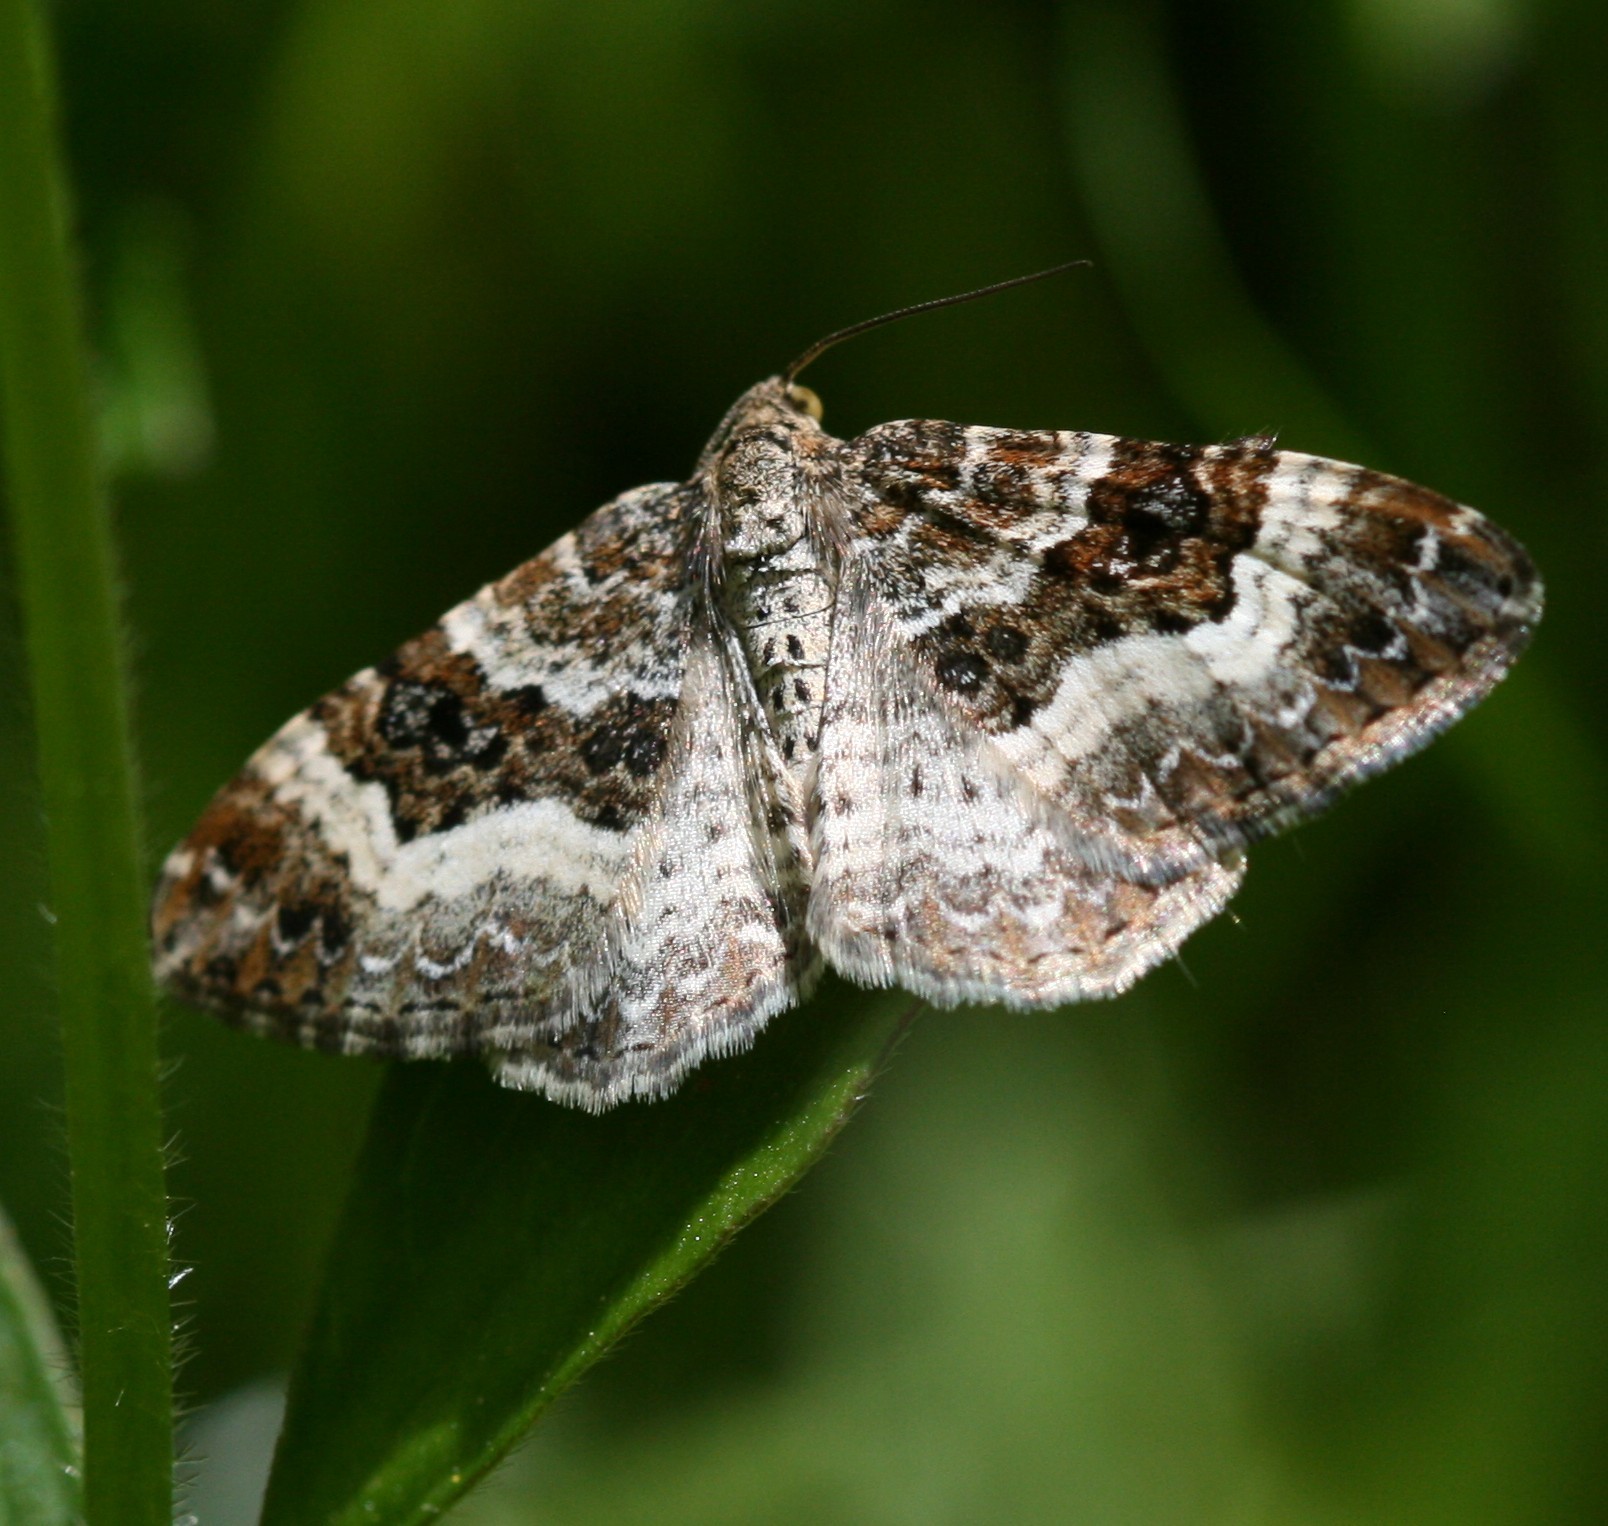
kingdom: Animalia
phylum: Arthropoda
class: Insecta
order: Lepidoptera
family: Geometridae
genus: Epirrhoe
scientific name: Epirrhoe alternata
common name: Common carpet
